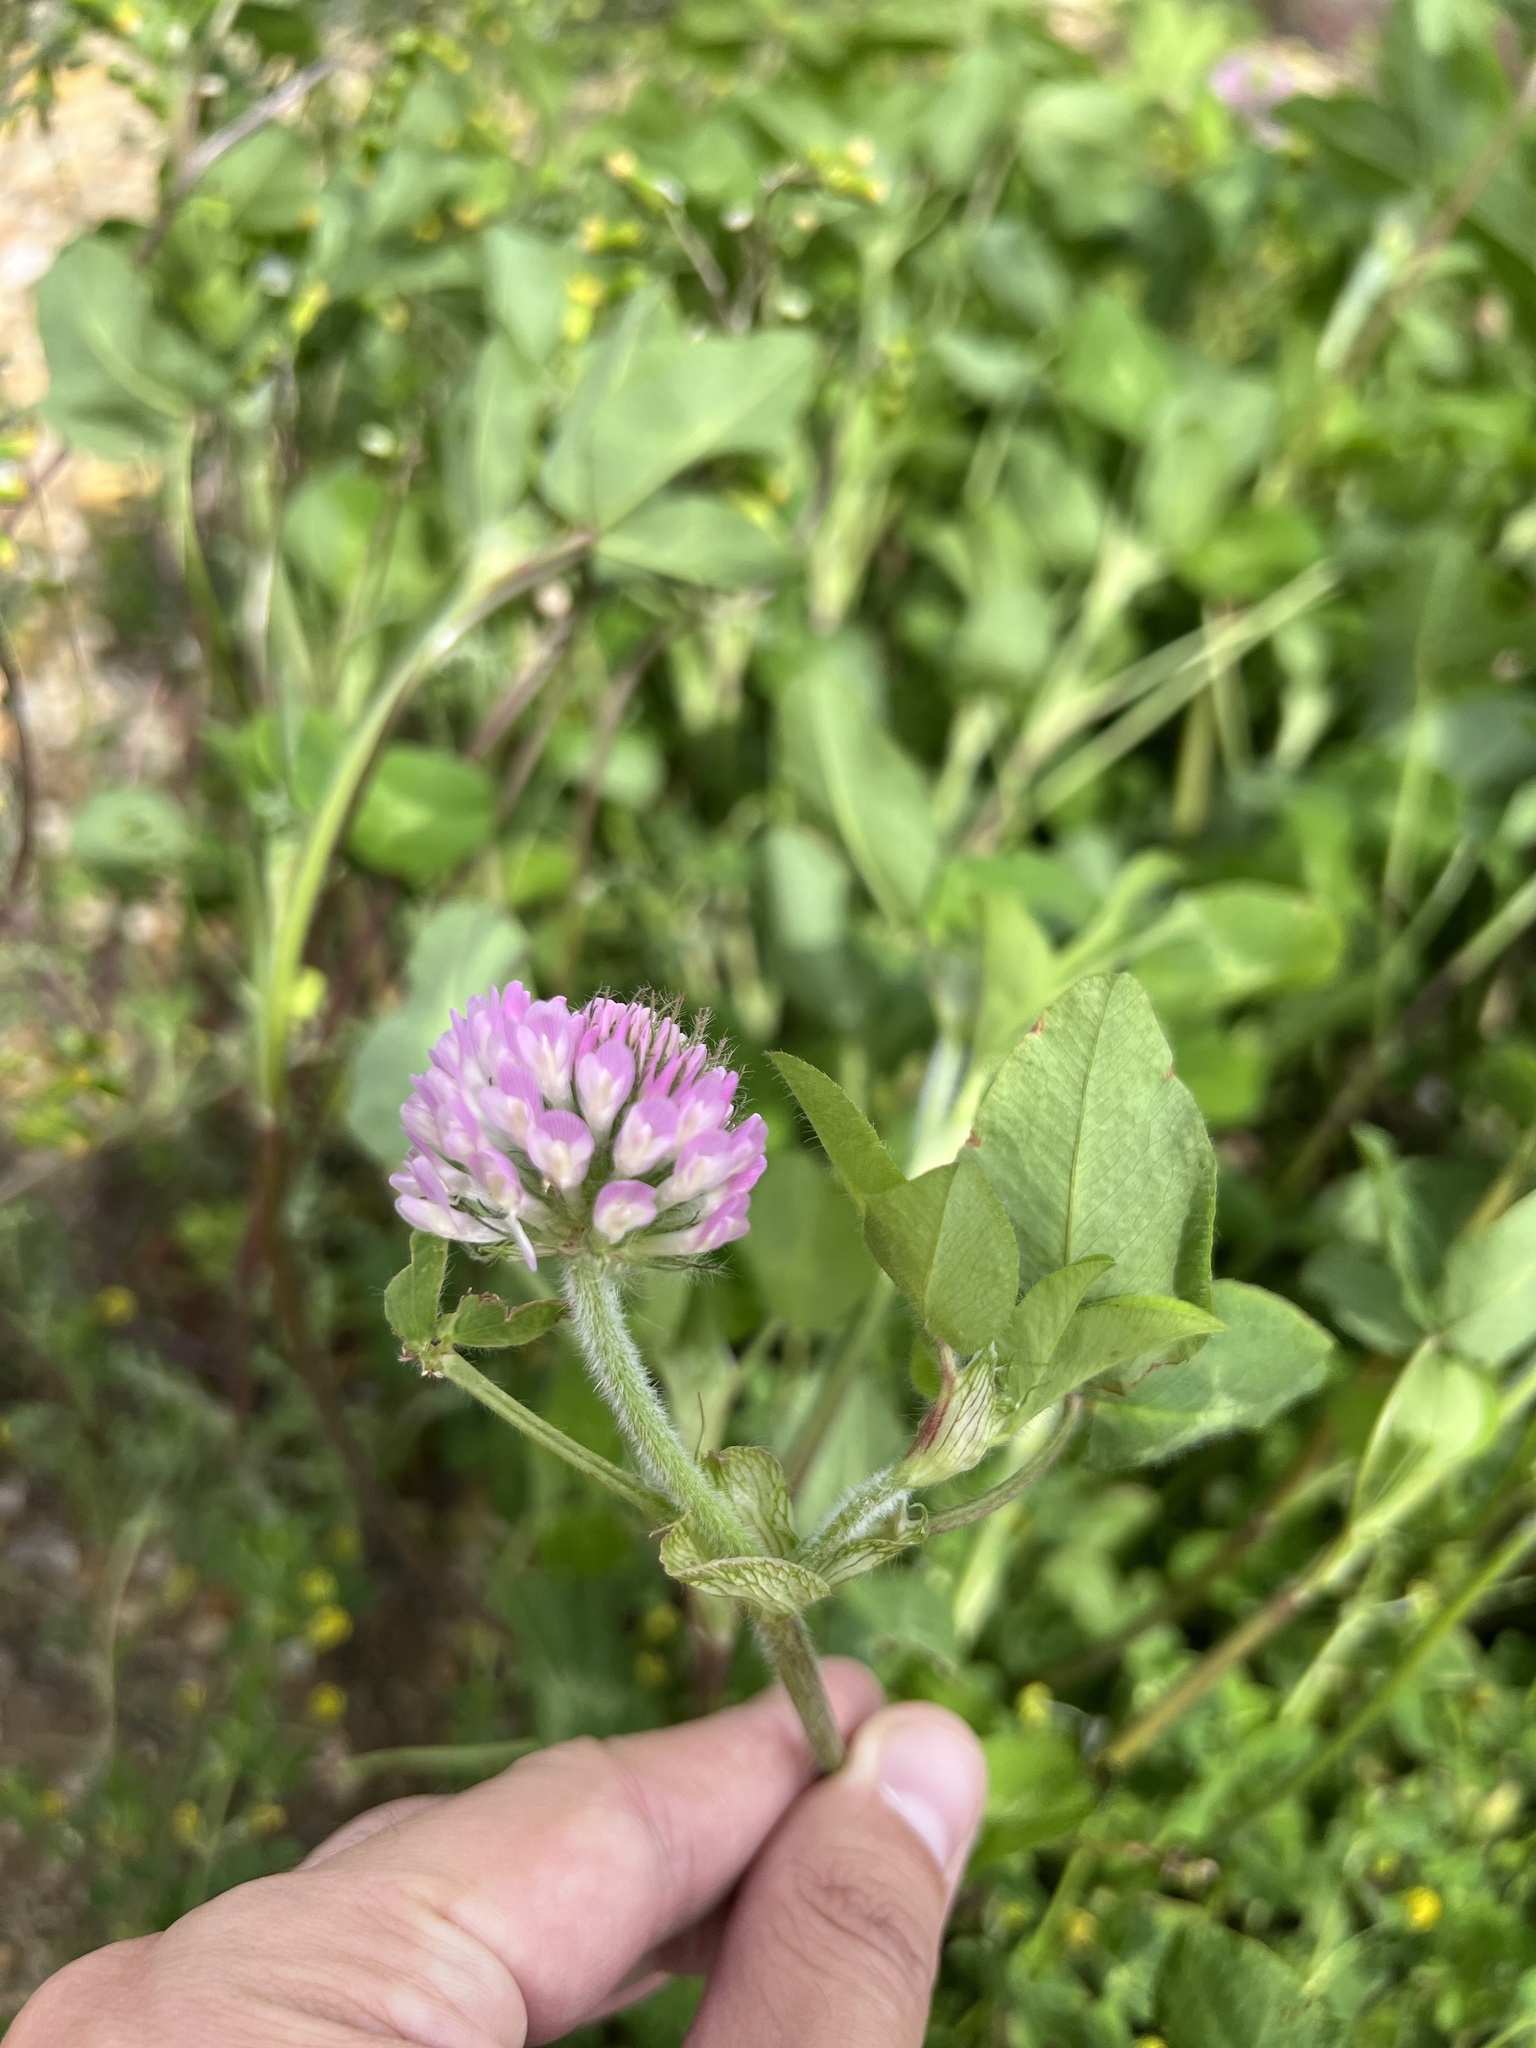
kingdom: Plantae
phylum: Tracheophyta
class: Magnoliopsida
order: Fabales
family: Fabaceae
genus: Trifolium
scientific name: Trifolium pratense
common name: Red clover
